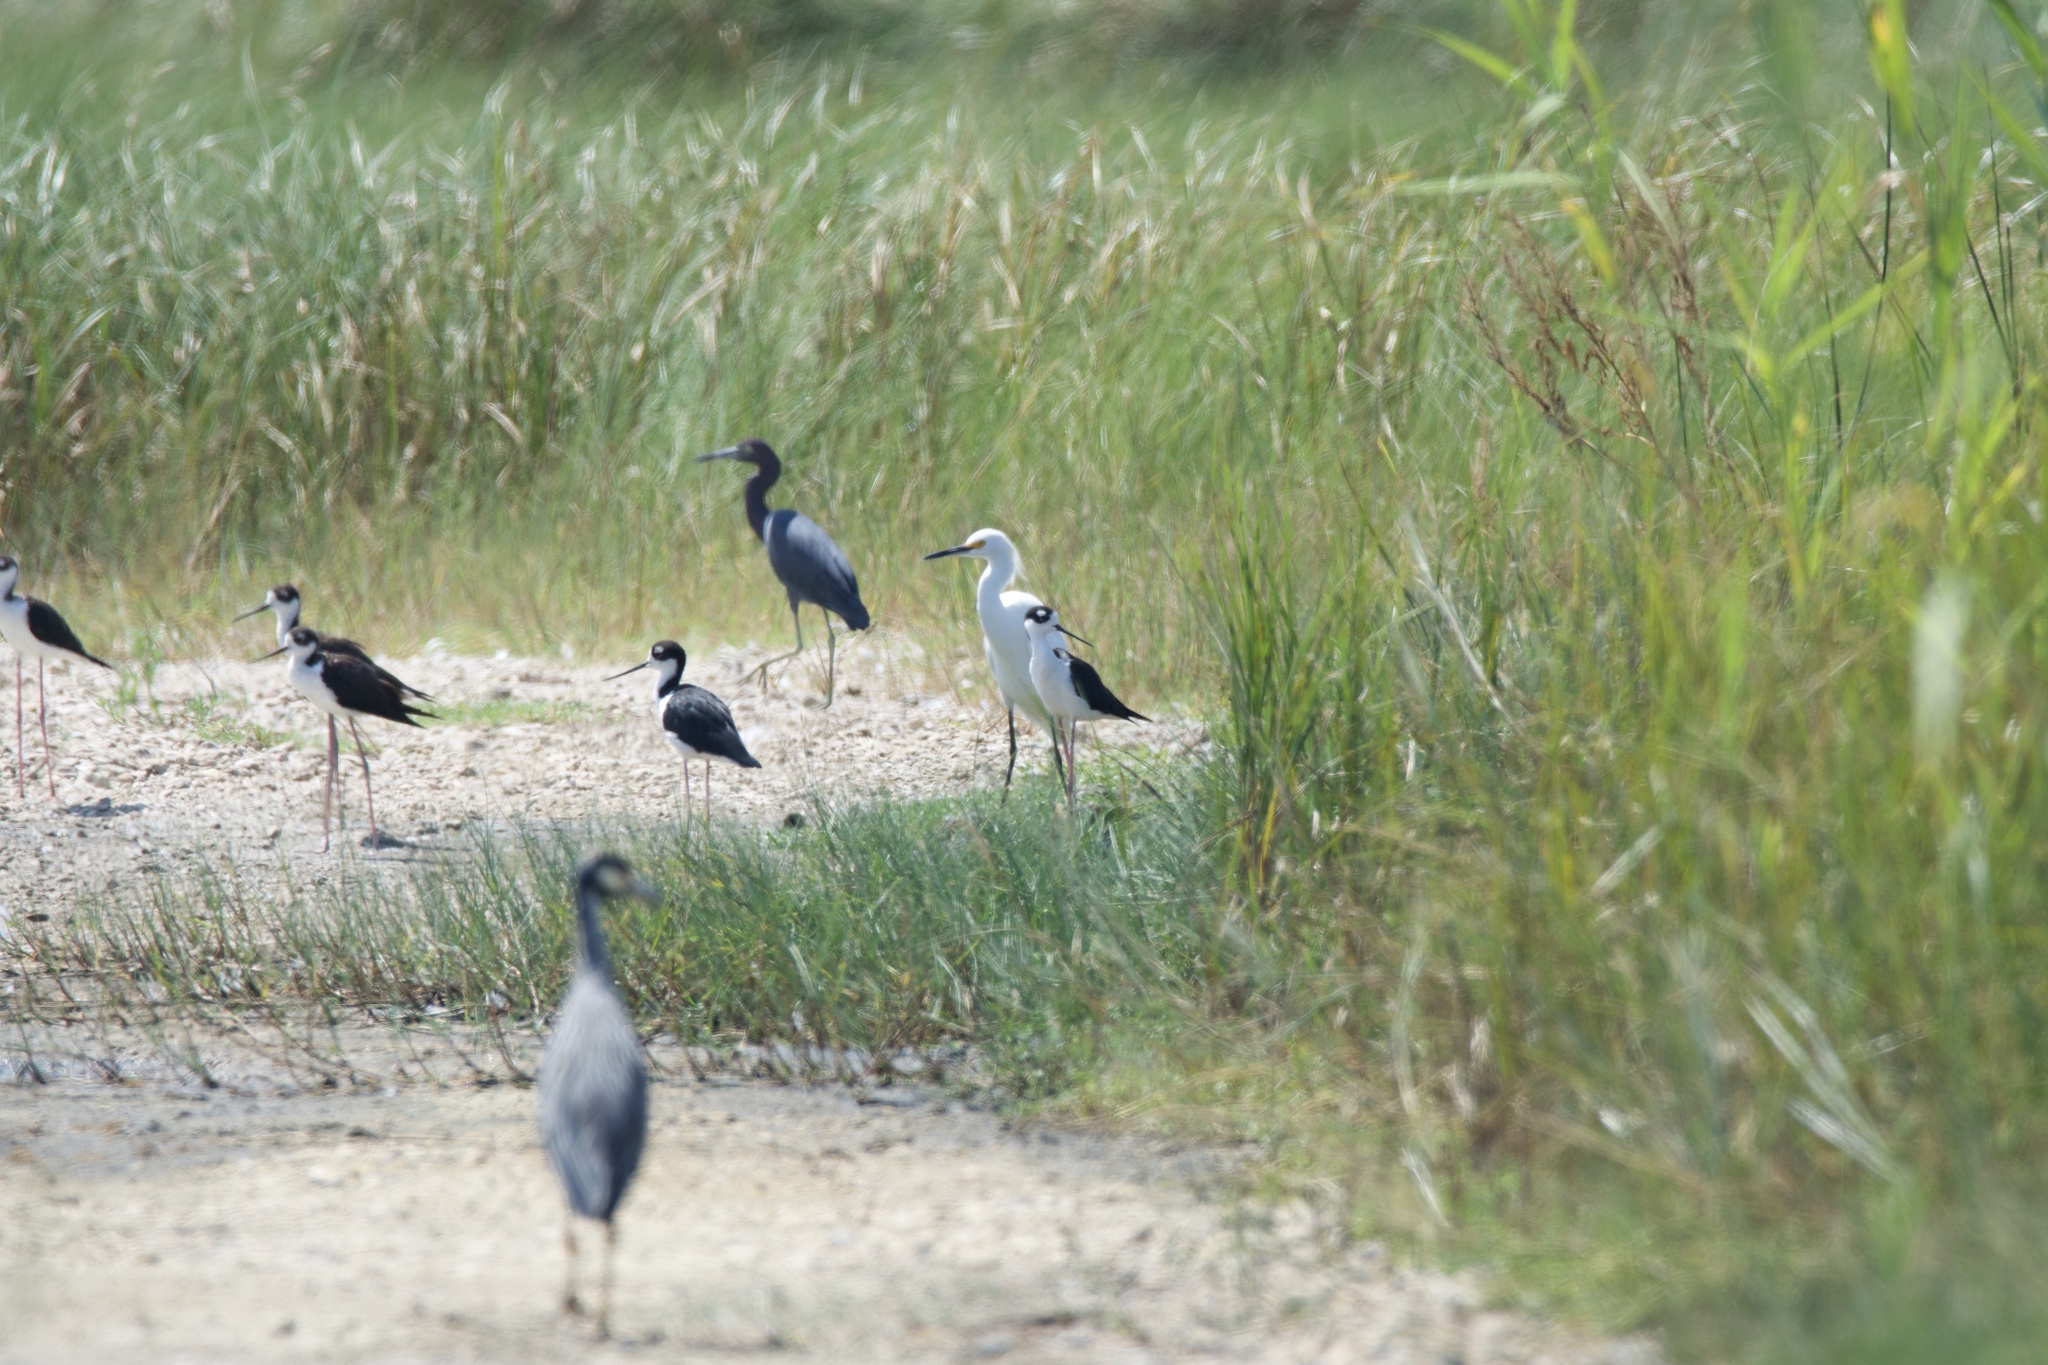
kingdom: Animalia
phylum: Chordata
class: Aves
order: Charadriiformes
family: Recurvirostridae
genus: Himantopus
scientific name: Himantopus mexicanus
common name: Black-necked stilt
